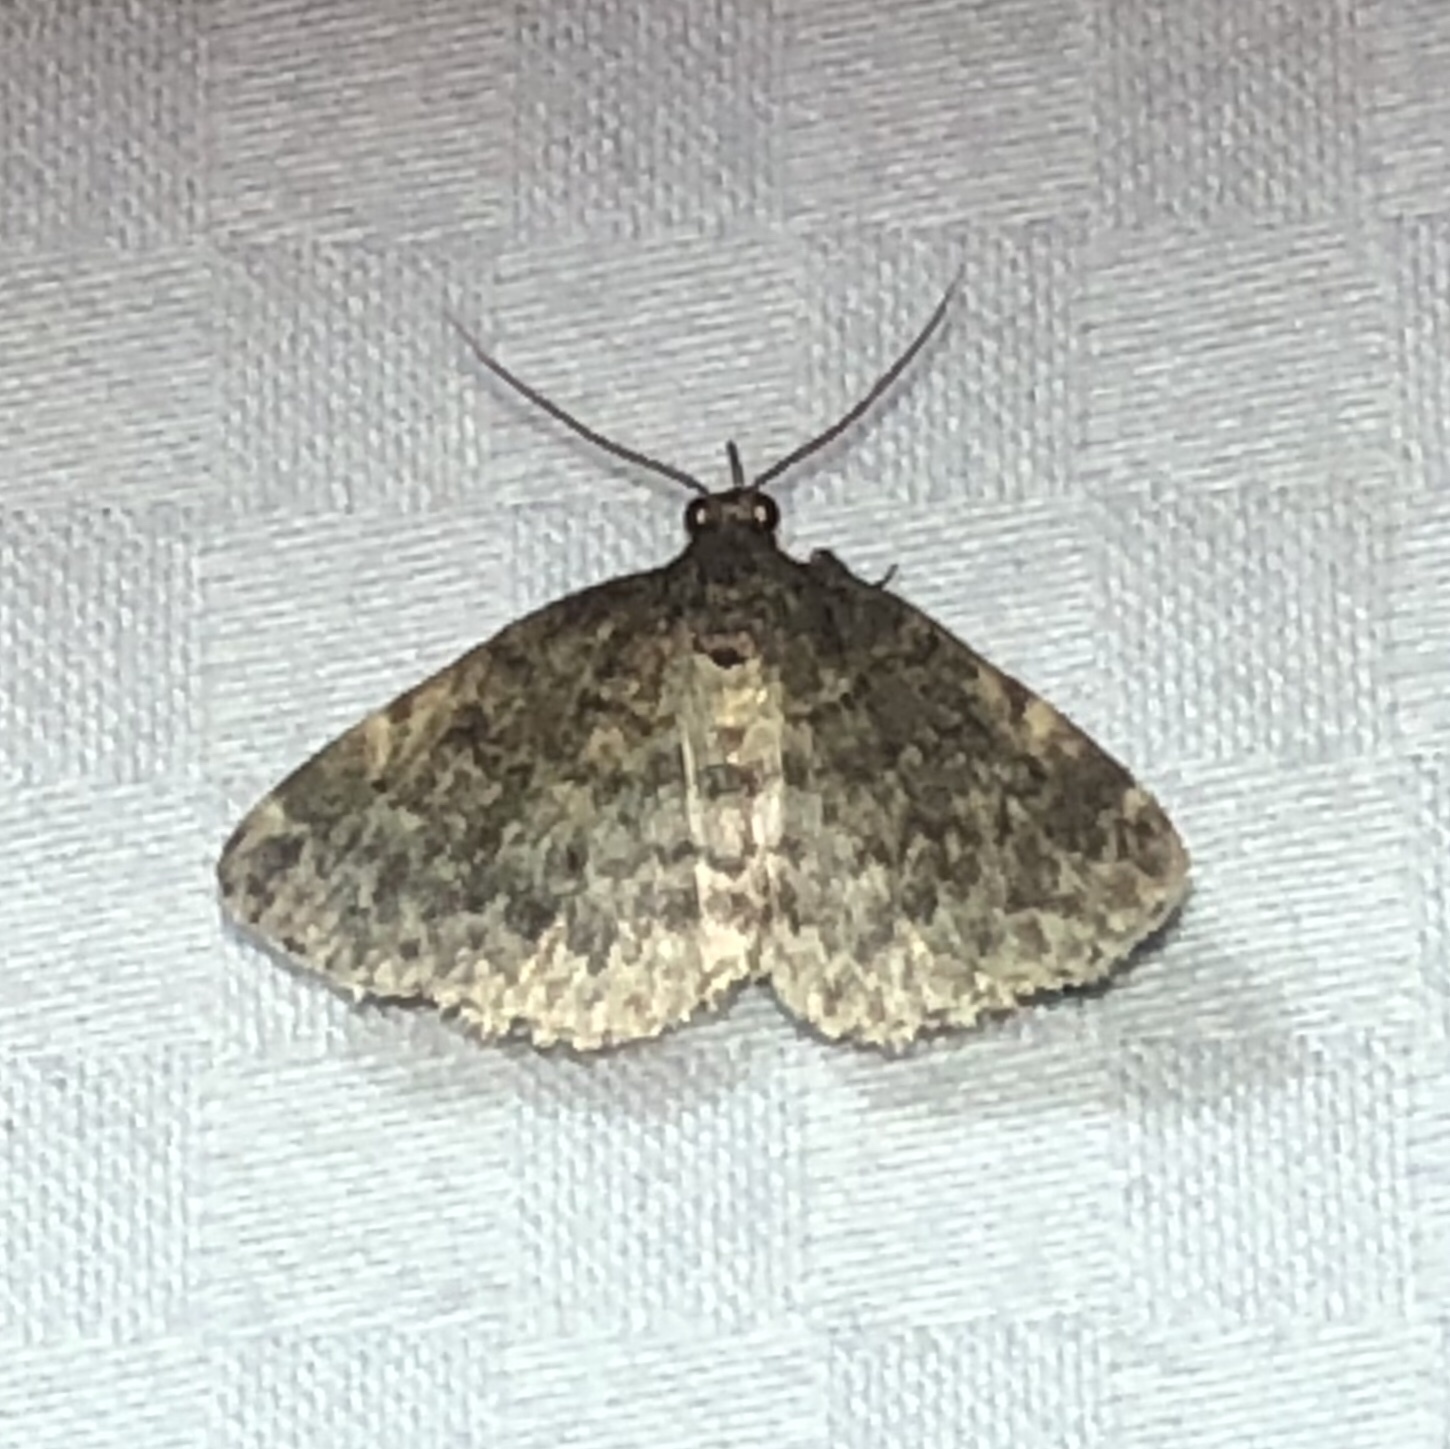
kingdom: Animalia
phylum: Arthropoda
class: Insecta
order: Lepidoptera
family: Erebidae
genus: Idia
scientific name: Idia forbesii
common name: Forbes' idia moth
